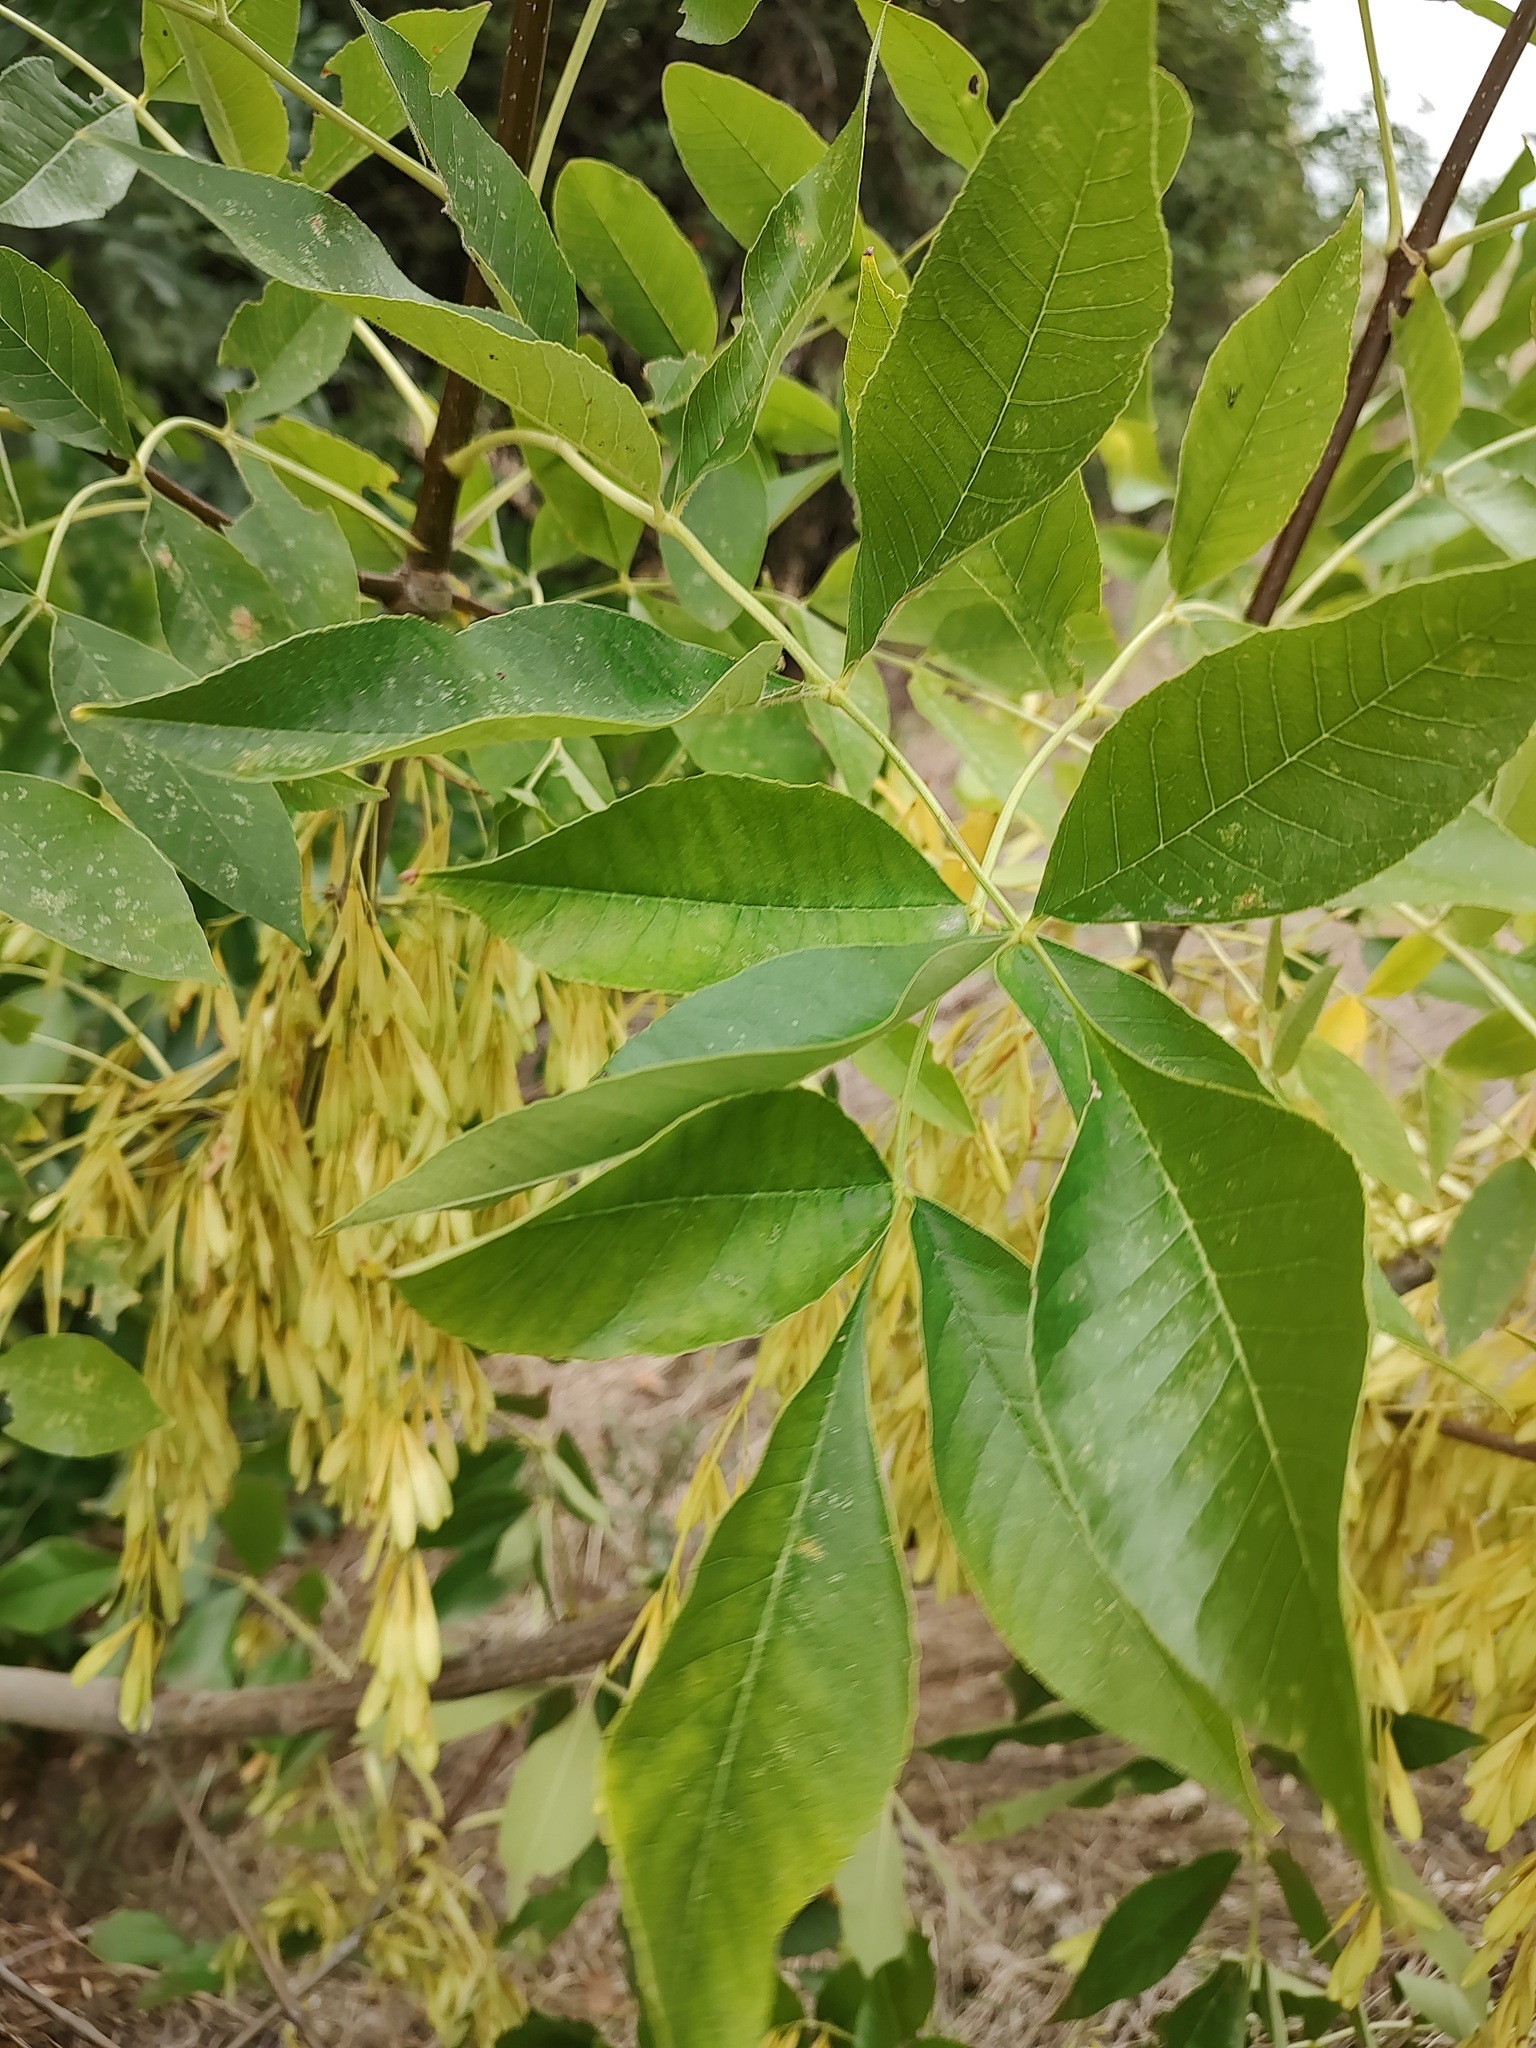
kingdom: Plantae
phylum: Tracheophyta
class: Magnoliopsida
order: Lamiales
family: Oleaceae
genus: Fraxinus
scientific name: Fraxinus pennsylvanica
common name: Green ash
